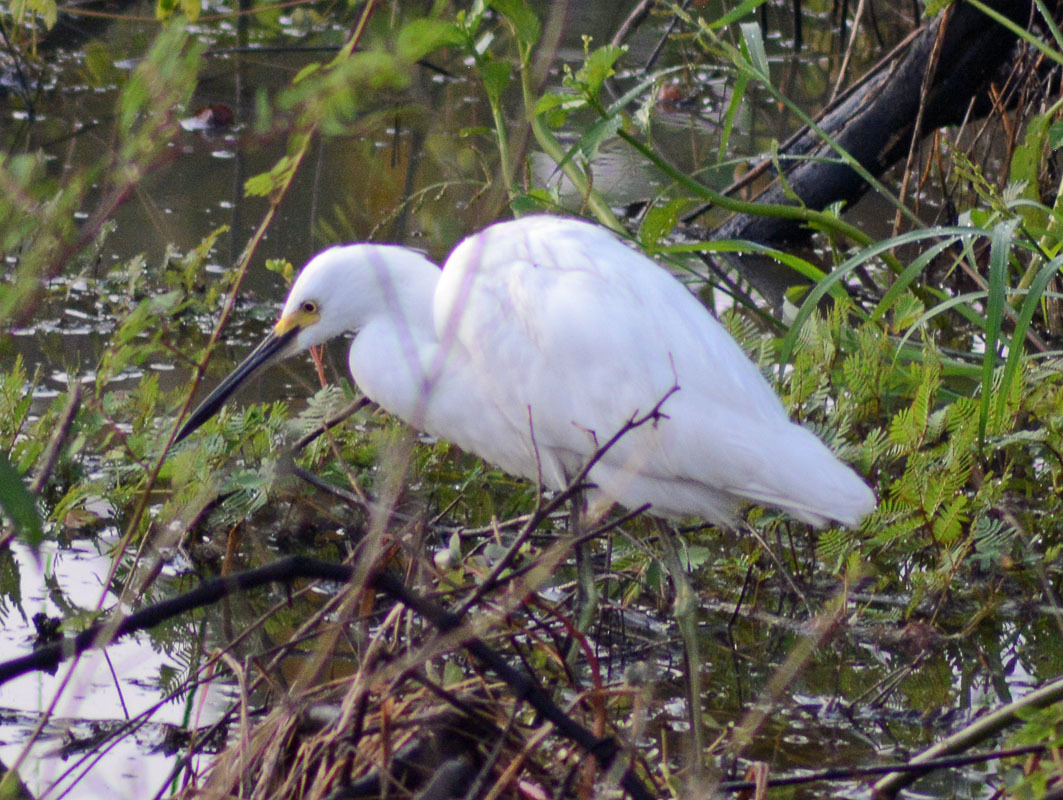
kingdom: Animalia
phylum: Chordata
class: Aves
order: Pelecaniformes
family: Ardeidae
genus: Egretta
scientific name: Egretta thula
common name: Snowy egret
